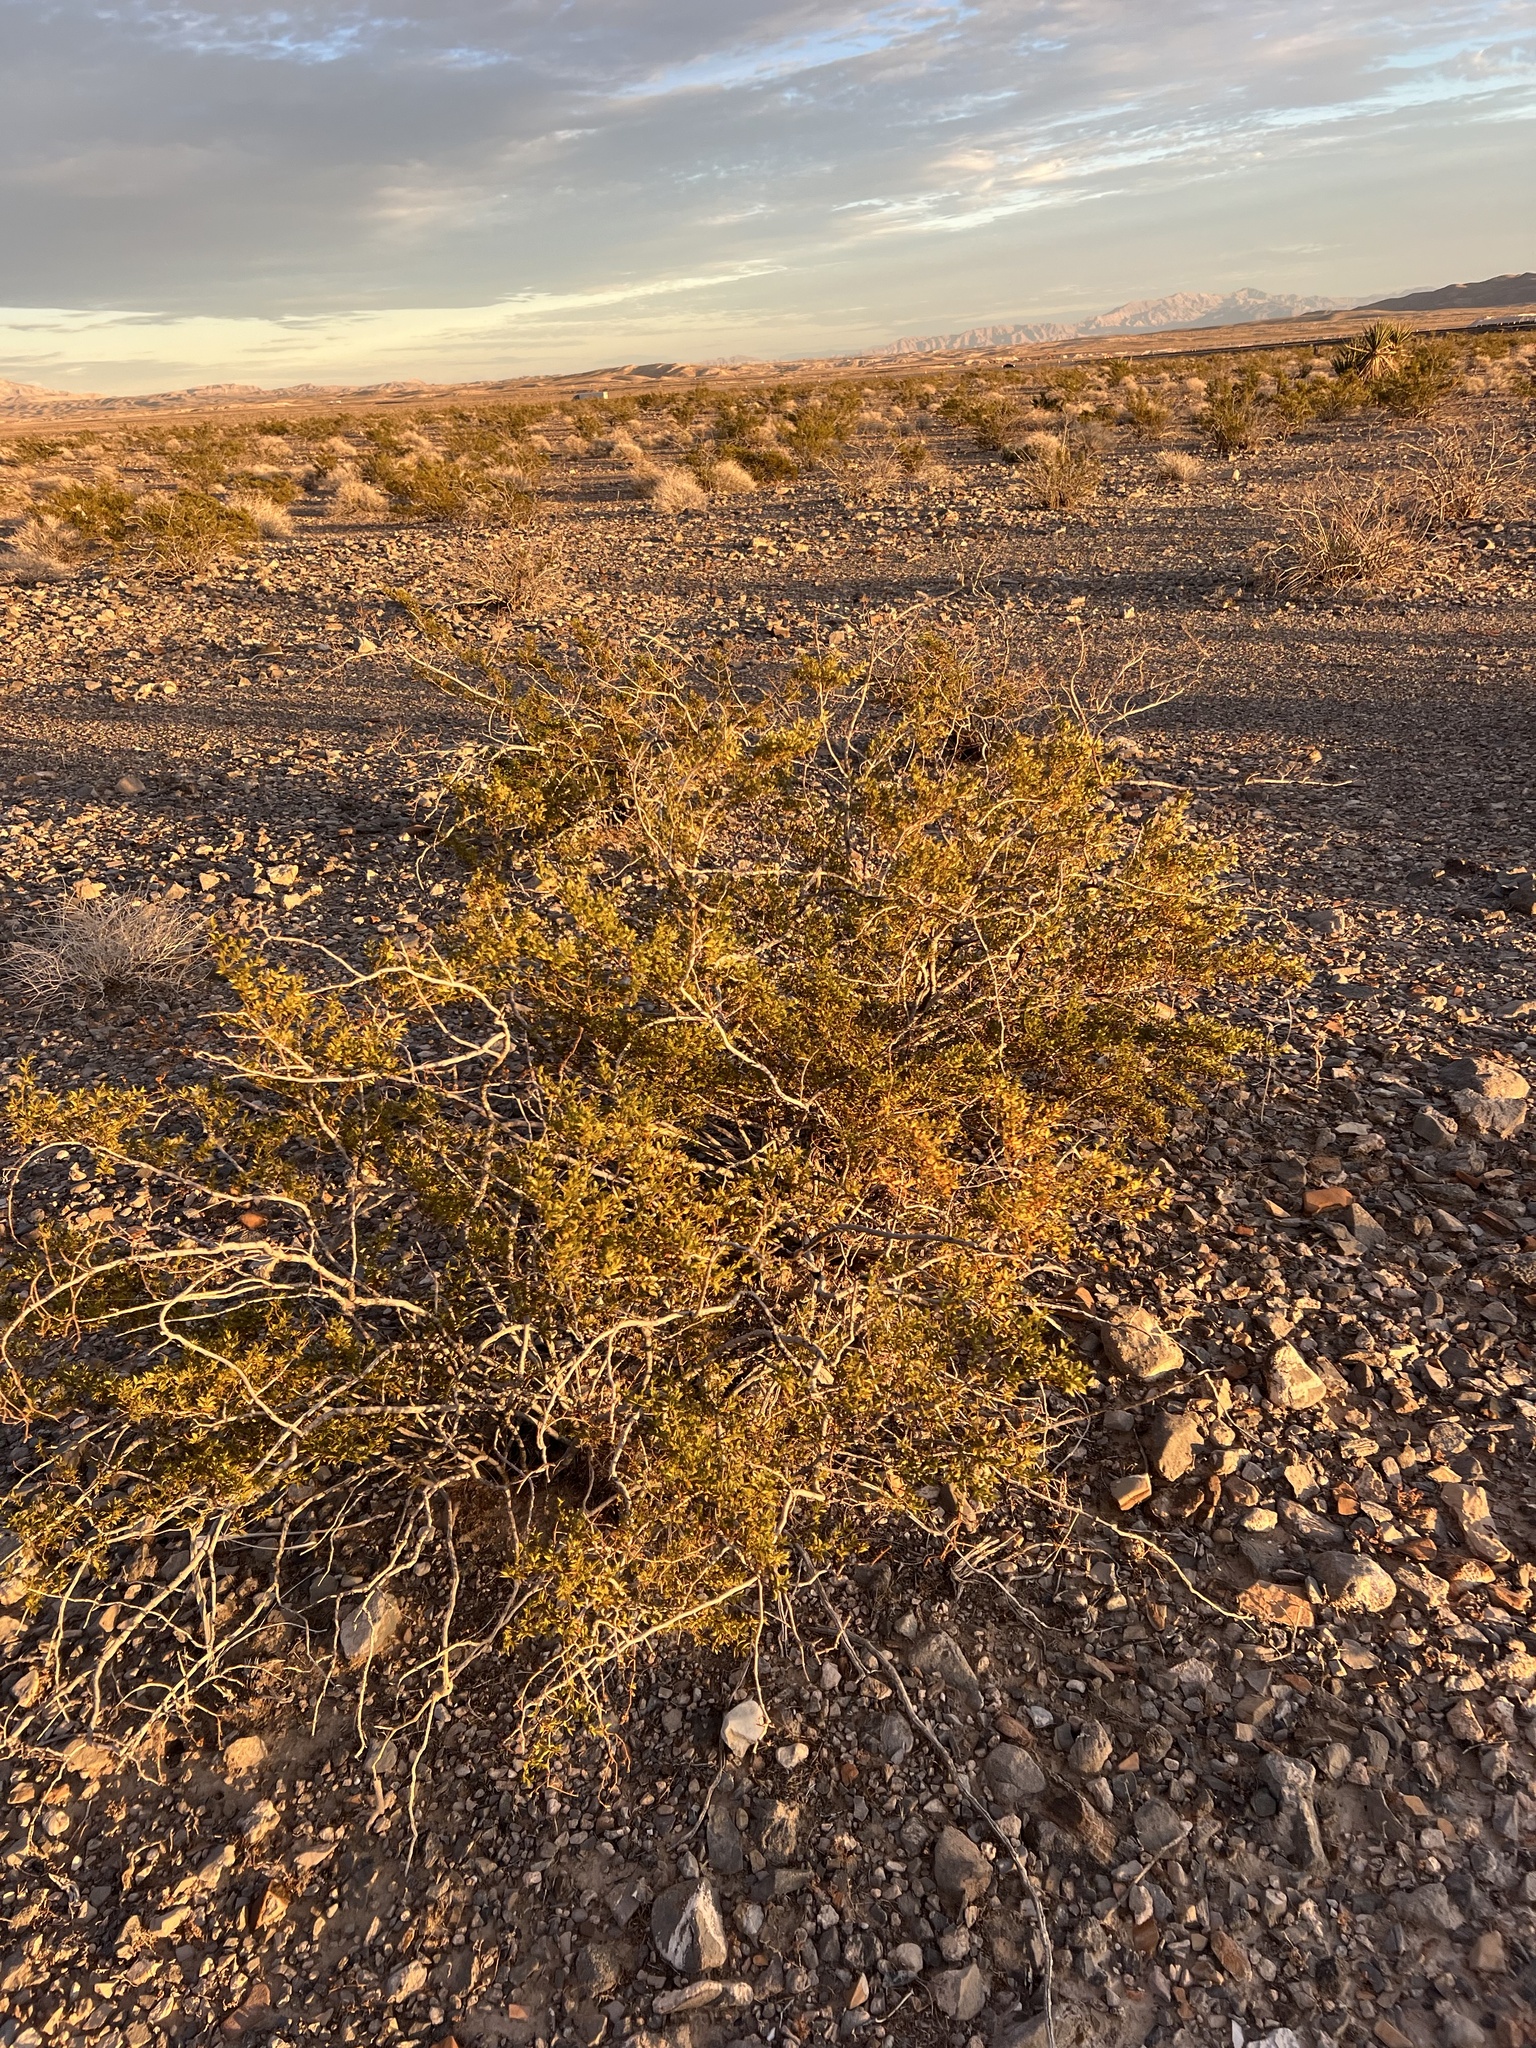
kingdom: Plantae
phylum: Tracheophyta
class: Magnoliopsida
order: Zygophyllales
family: Zygophyllaceae
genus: Larrea
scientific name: Larrea tridentata
